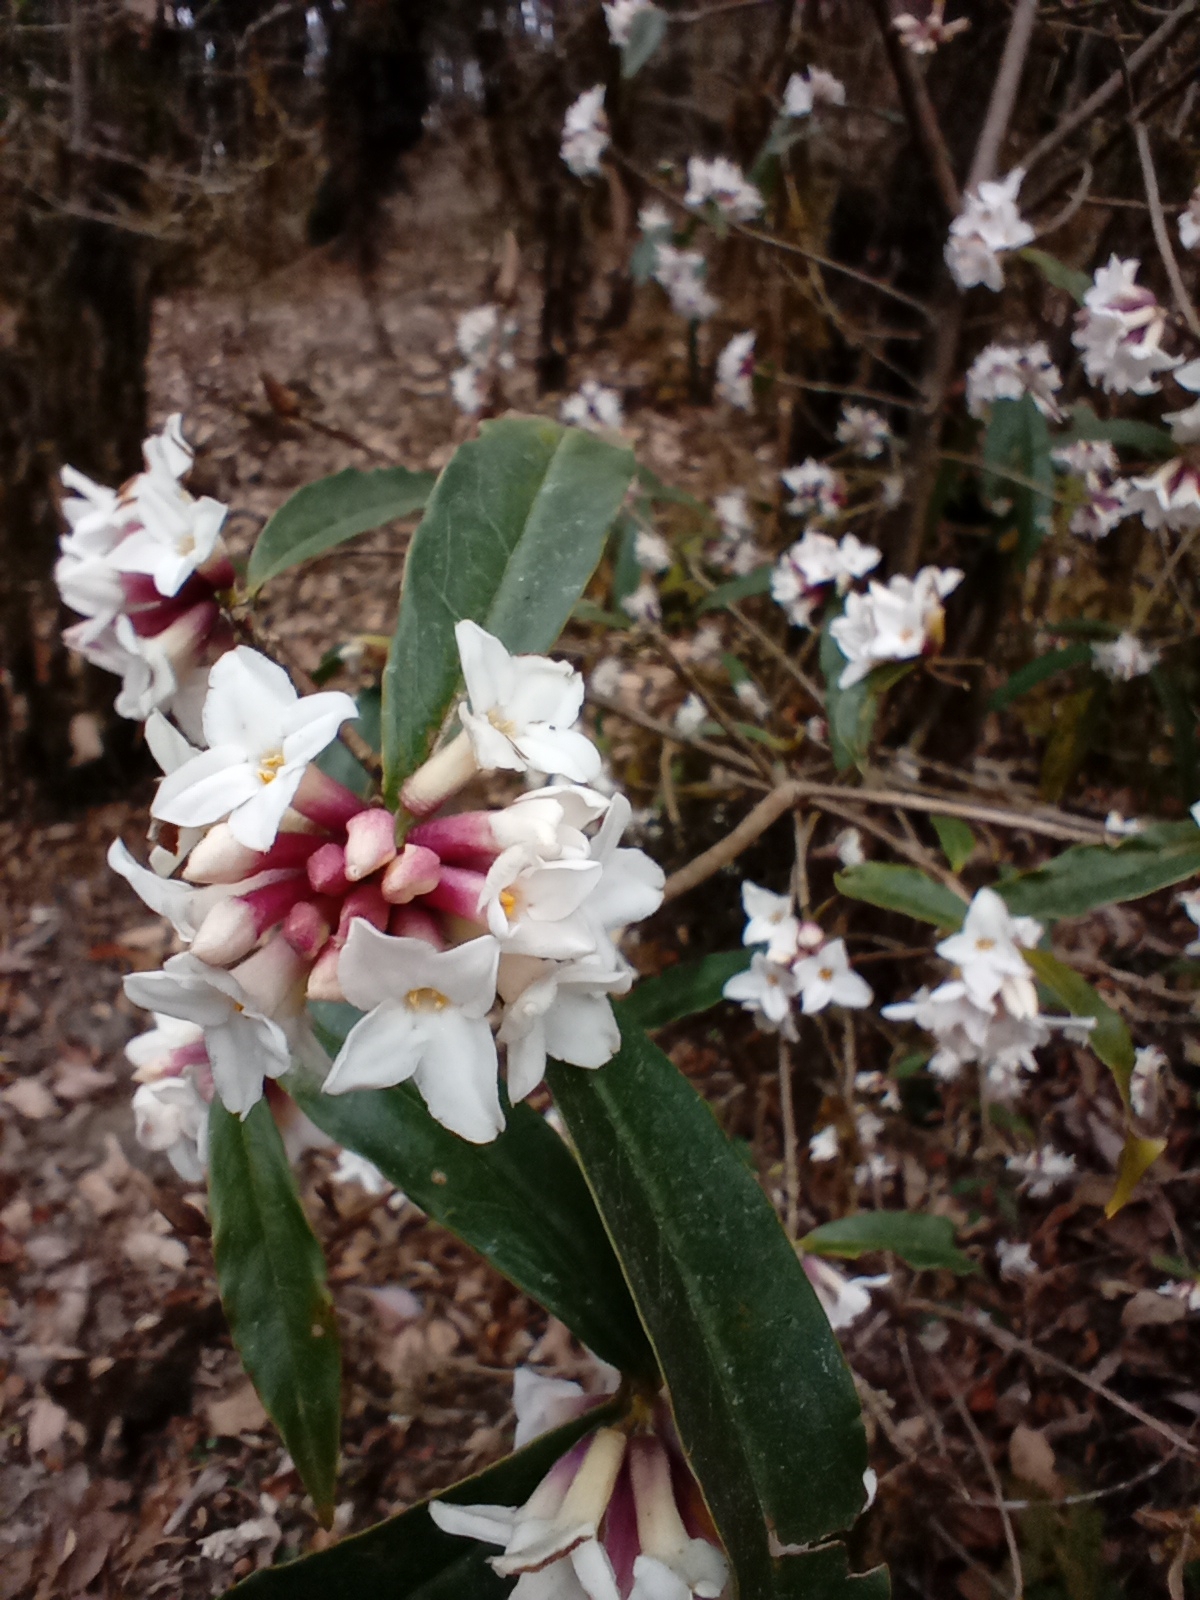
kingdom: Plantae
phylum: Tracheophyta
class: Magnoliopsida
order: Malvales
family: Thymelaeaceae
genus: Daphne
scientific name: Daphne bholua
